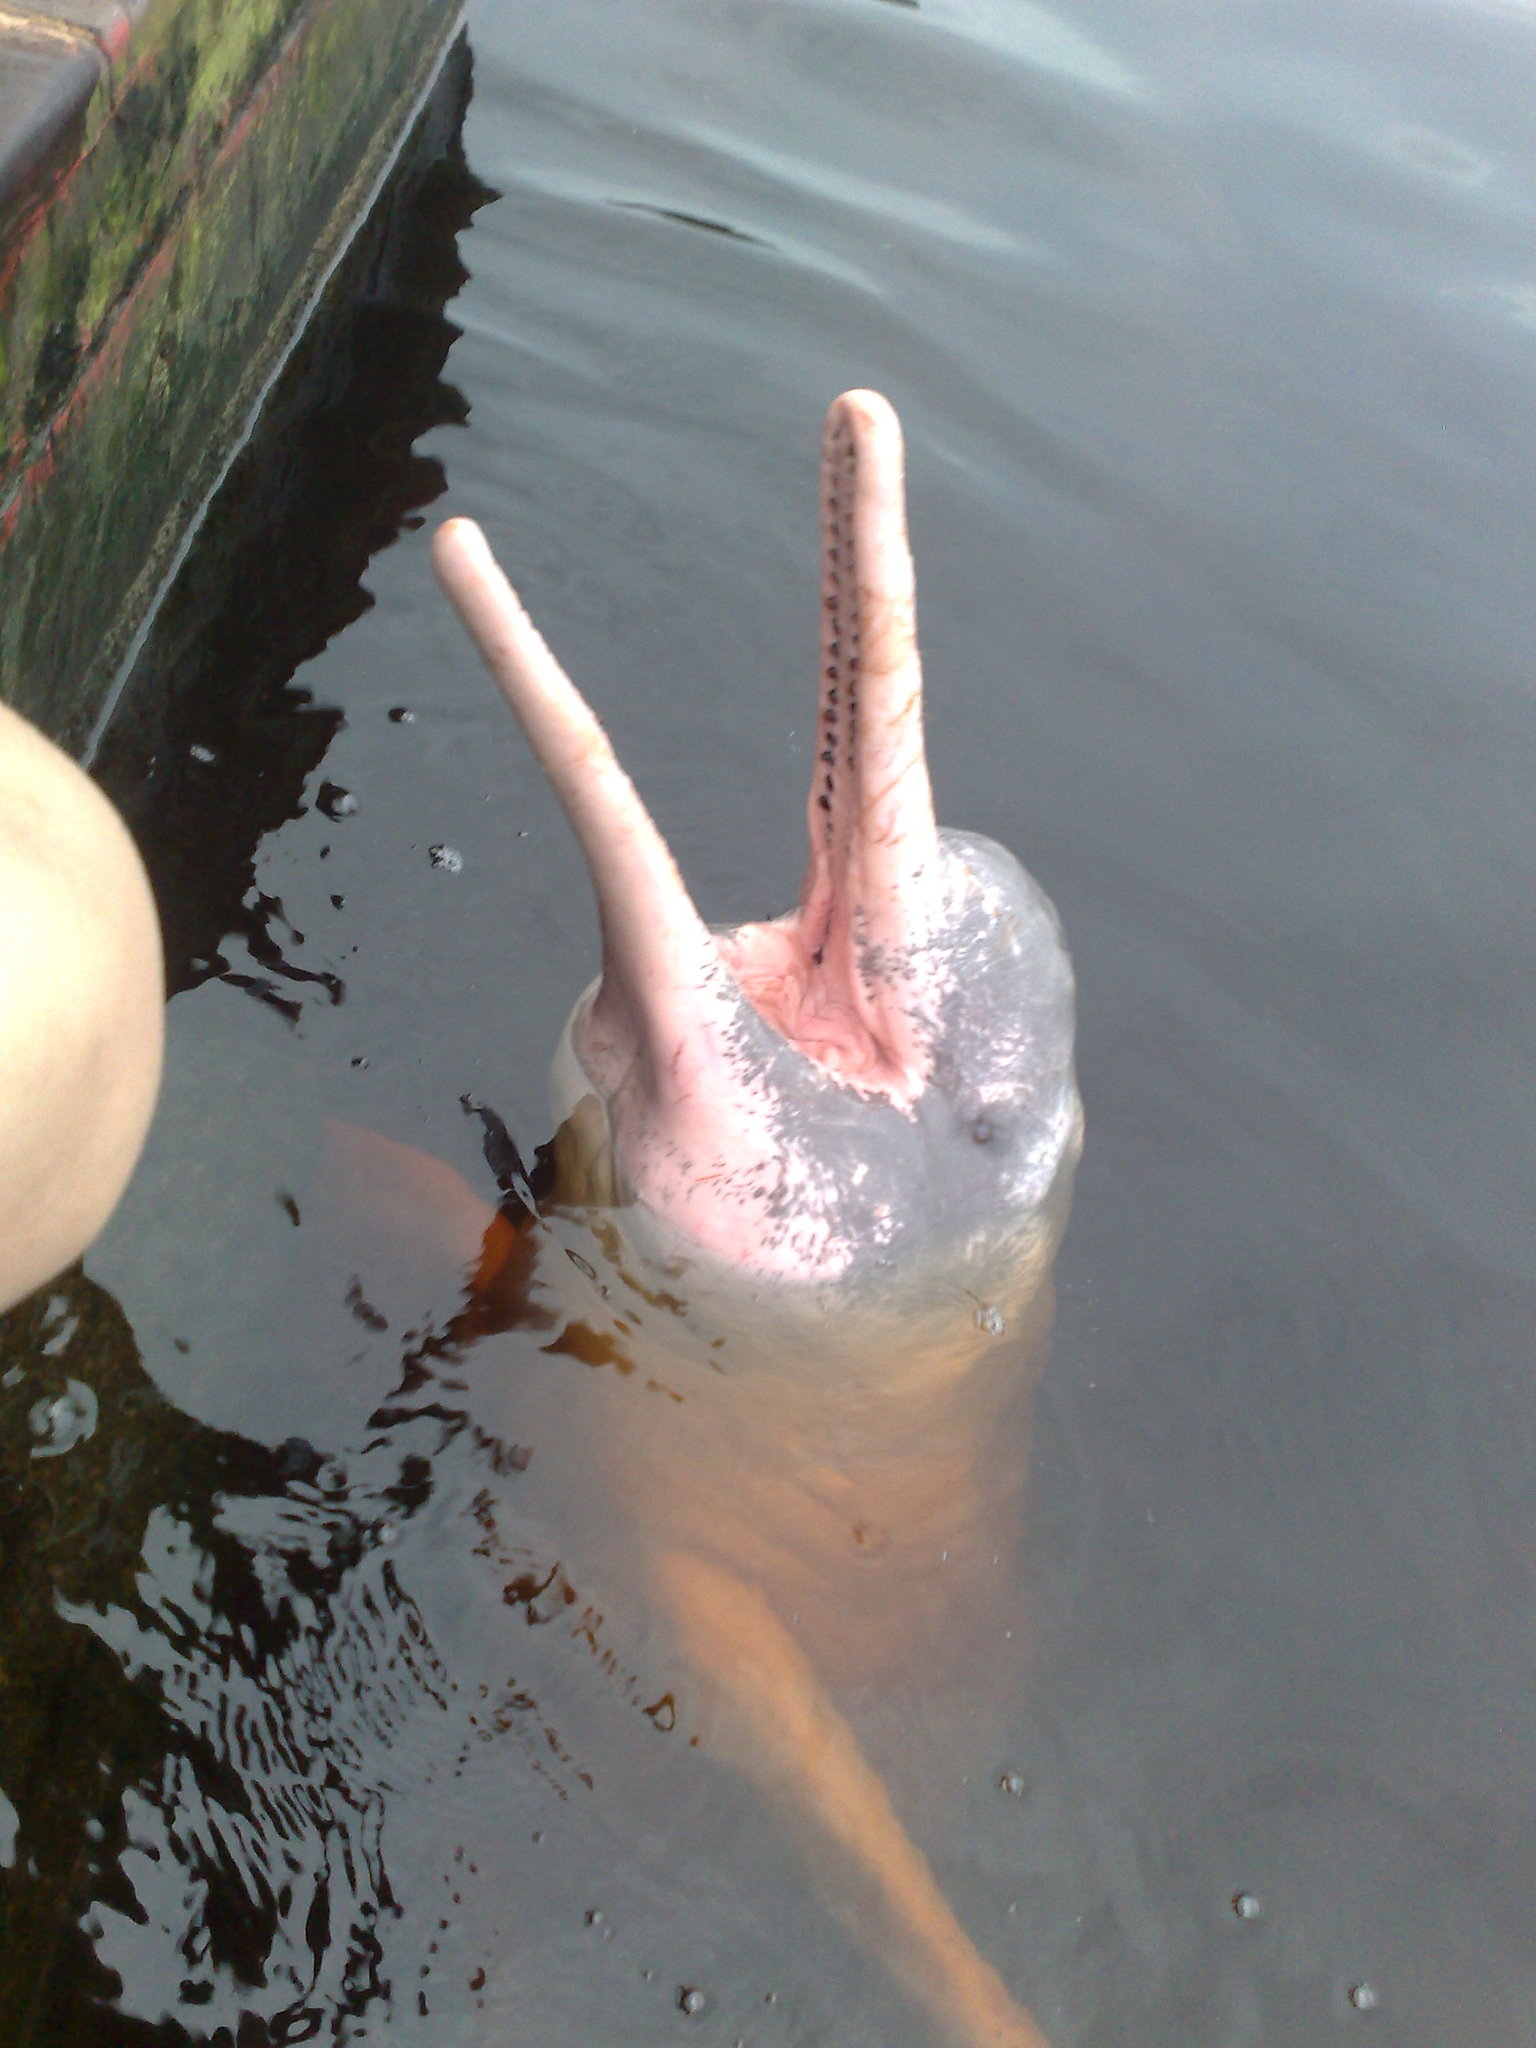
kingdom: Animalia
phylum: Chordata
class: Mammalia
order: Cetacea
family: Iniidae
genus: Inia
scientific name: Inia geoffrensis
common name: Amazon river dolphin
